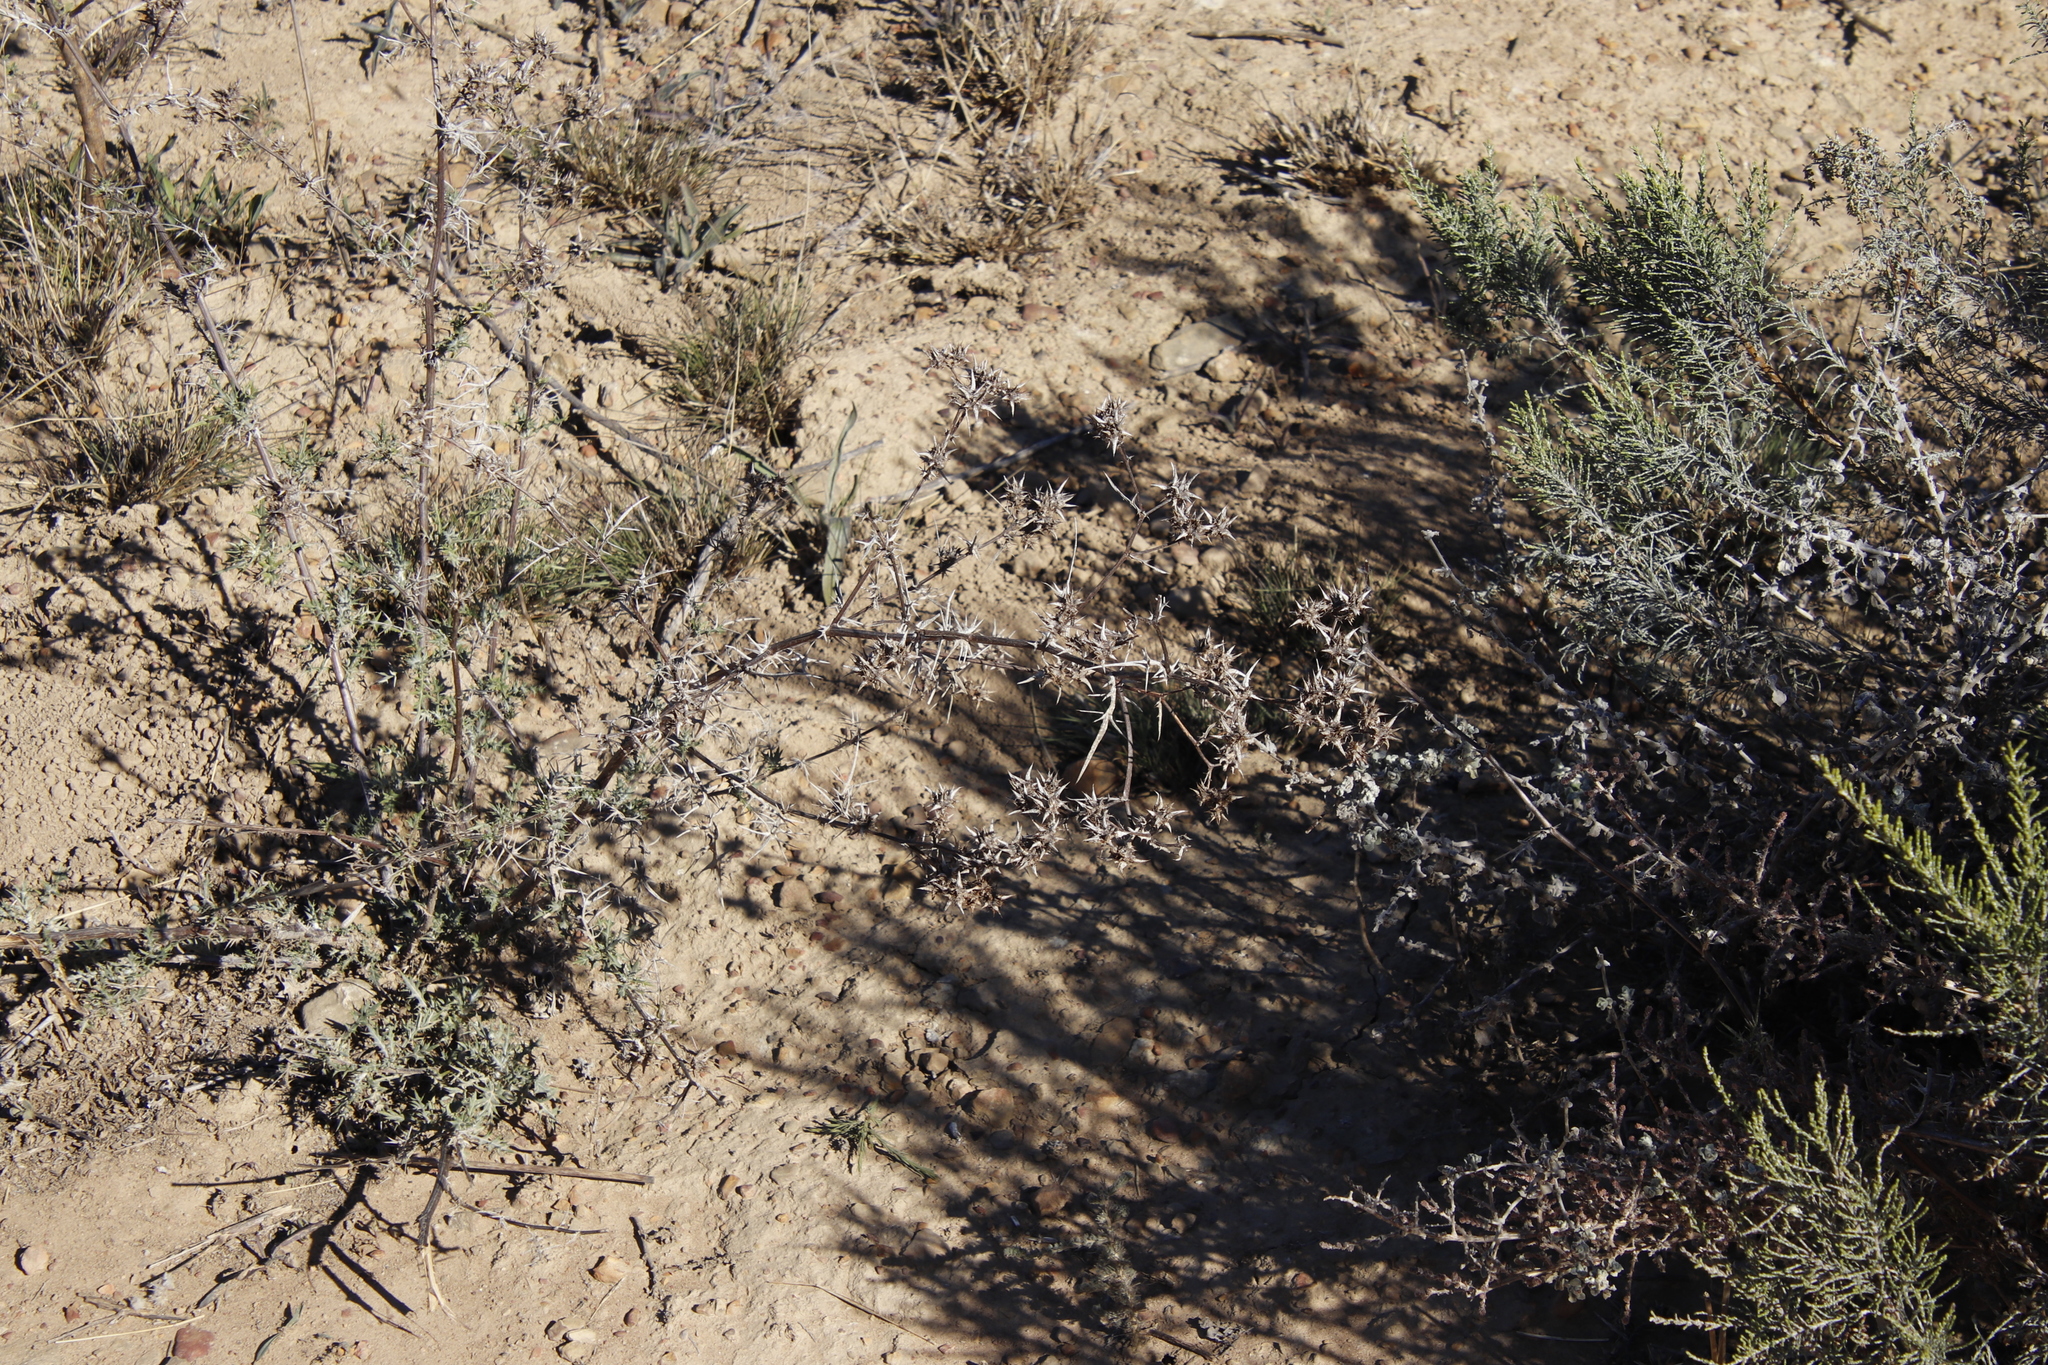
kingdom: Plantae
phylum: Tracheophyta
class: Magnoliopsida
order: Asterales
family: Asteraceae
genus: Berkheya
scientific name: Berkheya rigida
